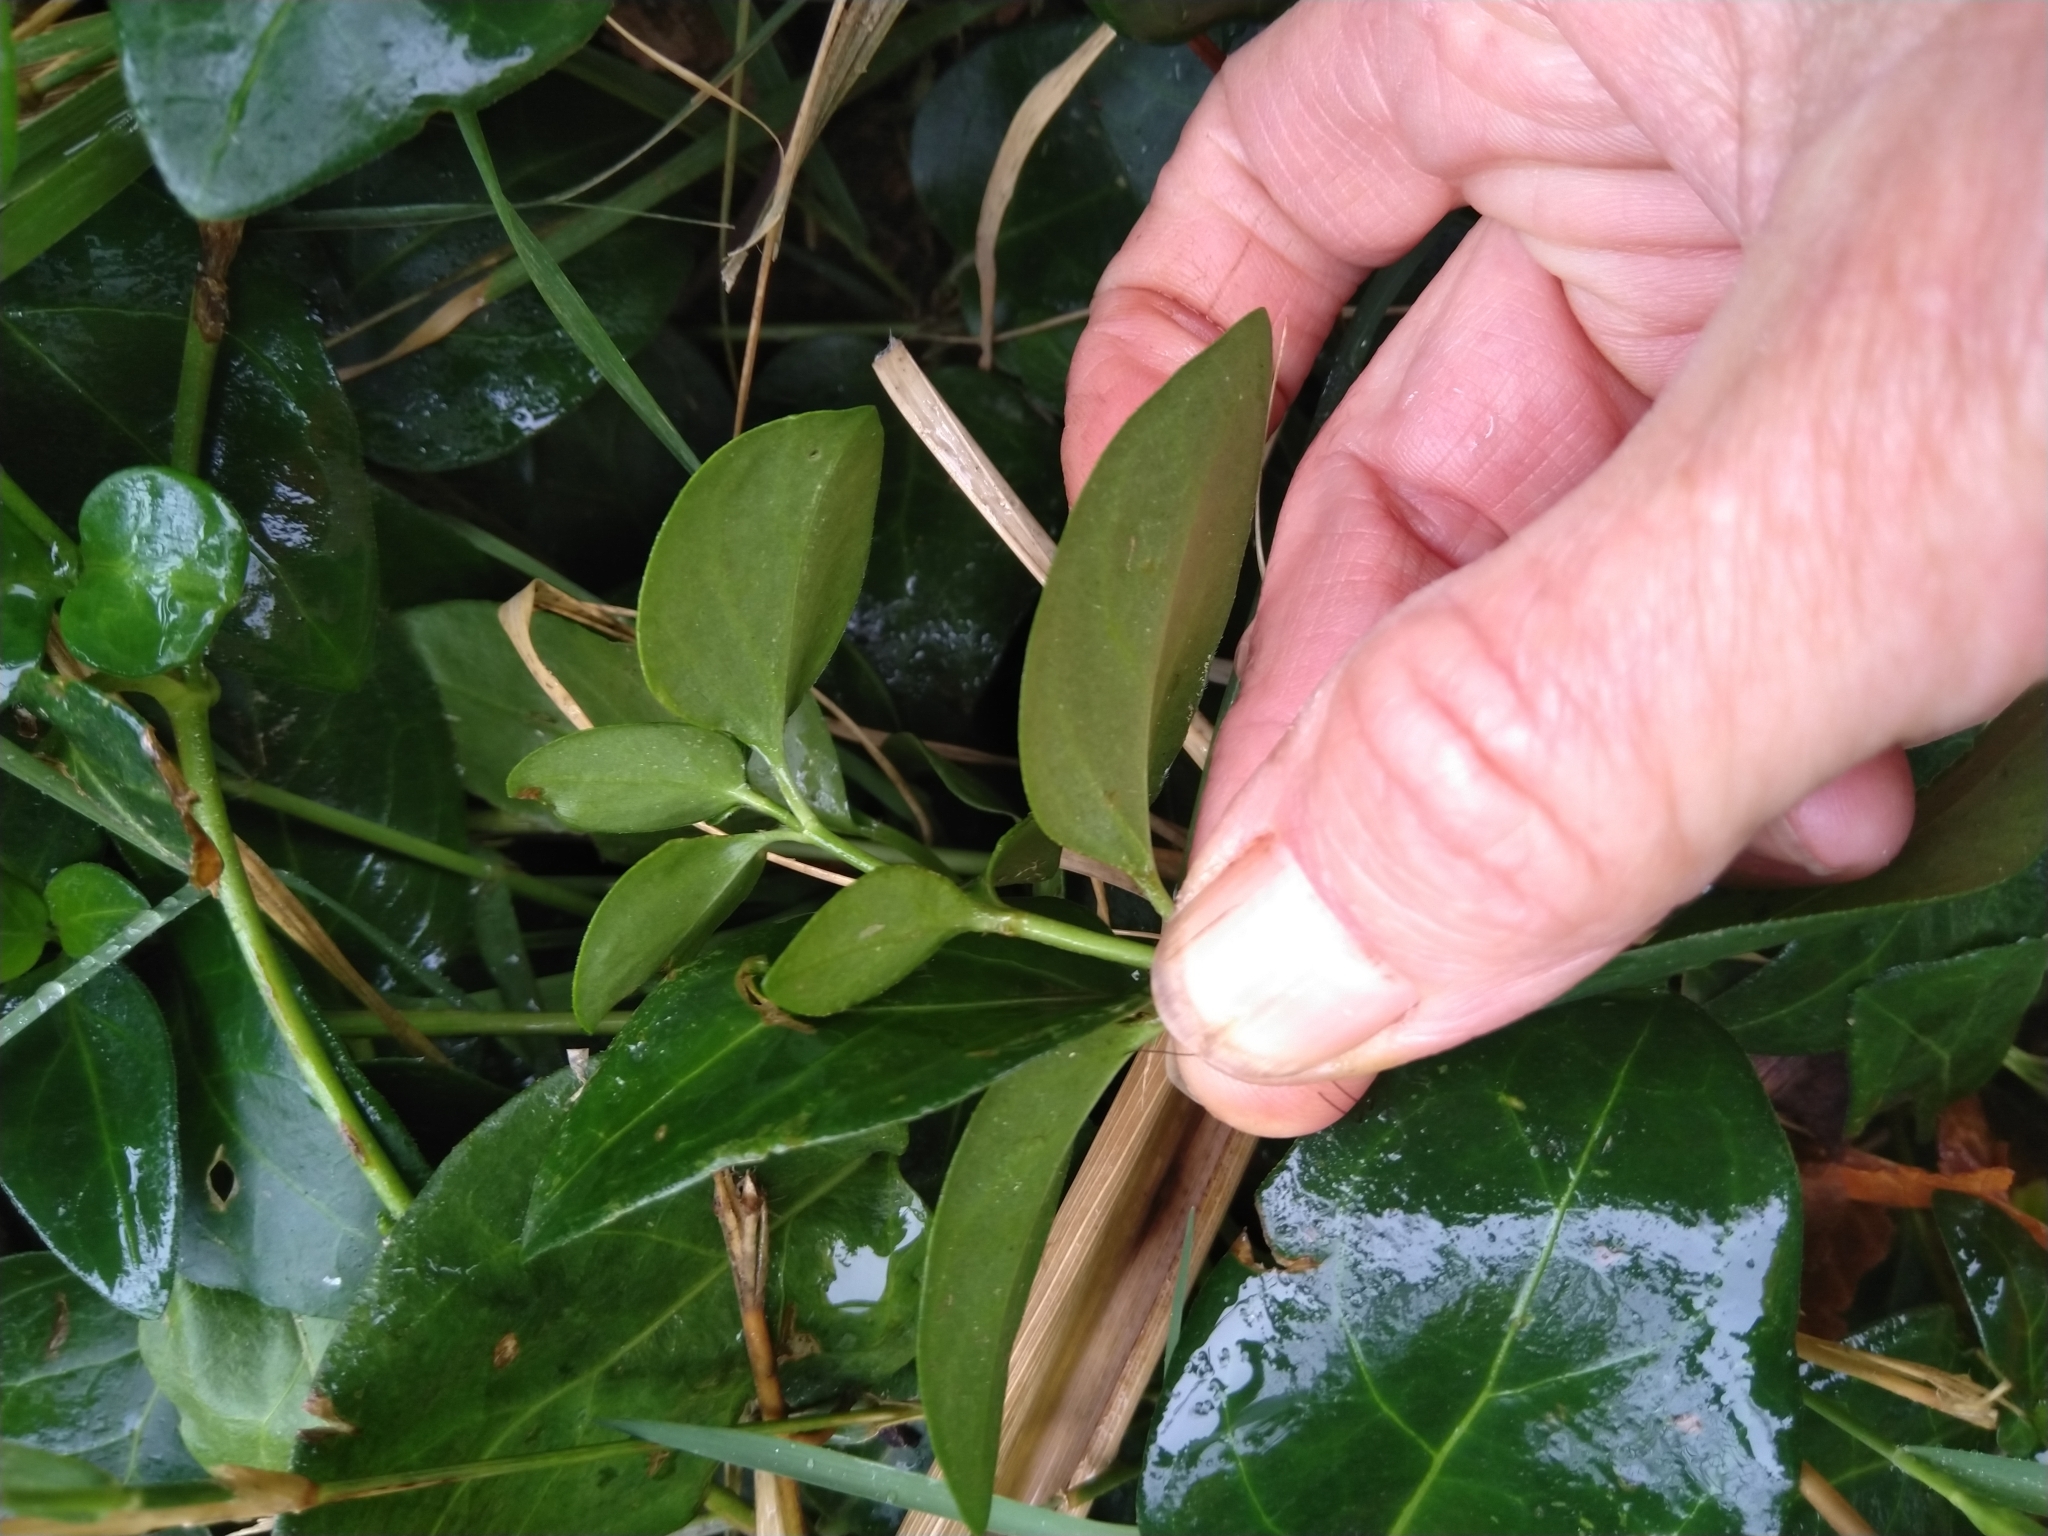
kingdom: Plantae
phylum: Tracheophyta
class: Magnoliopsida
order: Gentianales
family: Apocynaceae
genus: Vinca
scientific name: Vinca major
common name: Greater periwinkle
